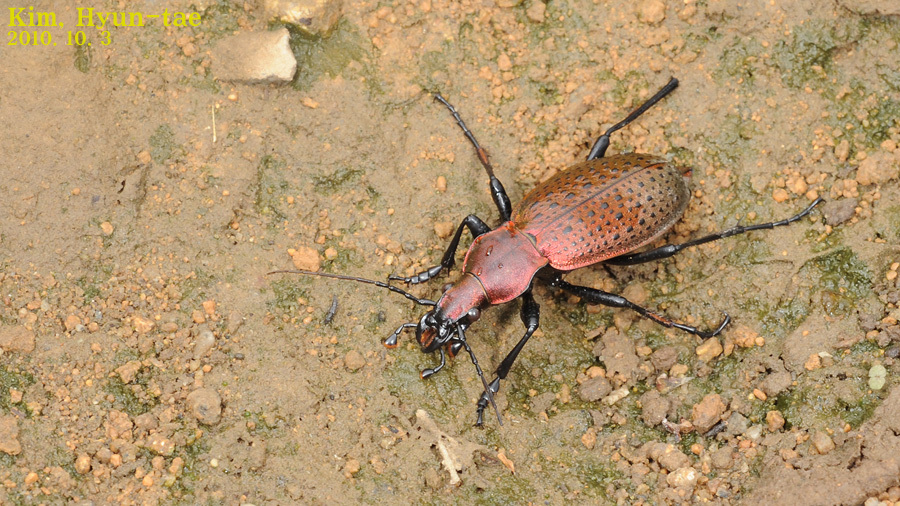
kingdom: Animalia
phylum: Arthropoda
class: Insecta
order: Coleoptera
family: Carabidae
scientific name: Carabidae
